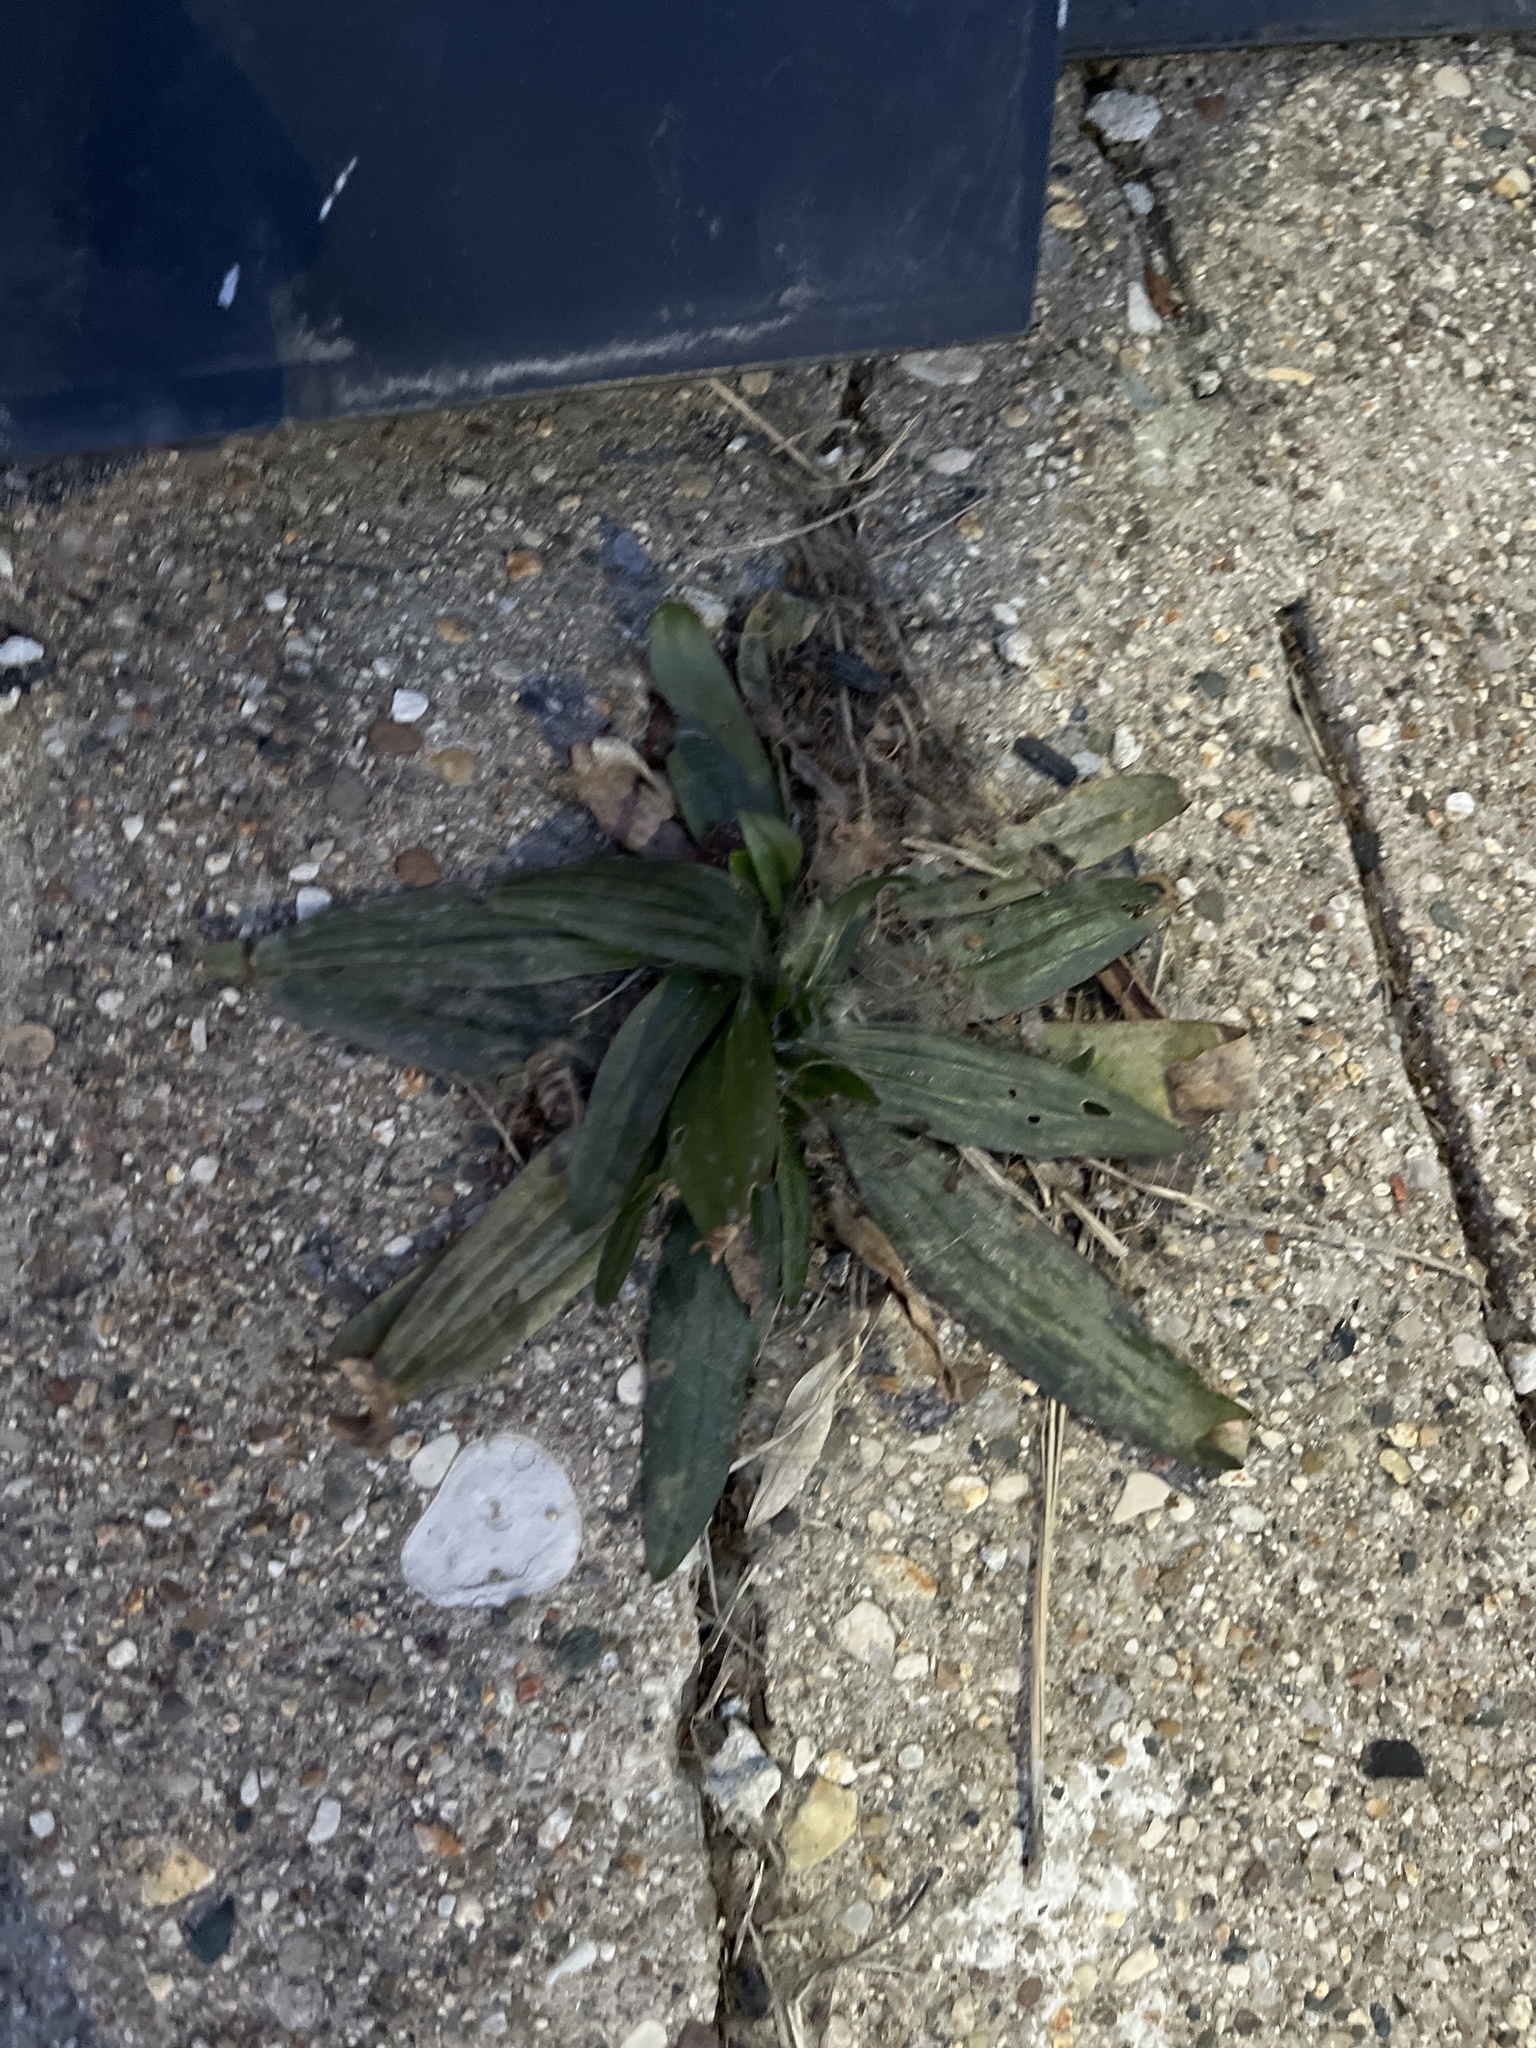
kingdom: Plantae
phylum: Tracheophyta
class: Magnoliopsida
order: Lamiales
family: Plantaginaceae
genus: Plantago
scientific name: Plantago lanceolata
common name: Ribwort plantain
